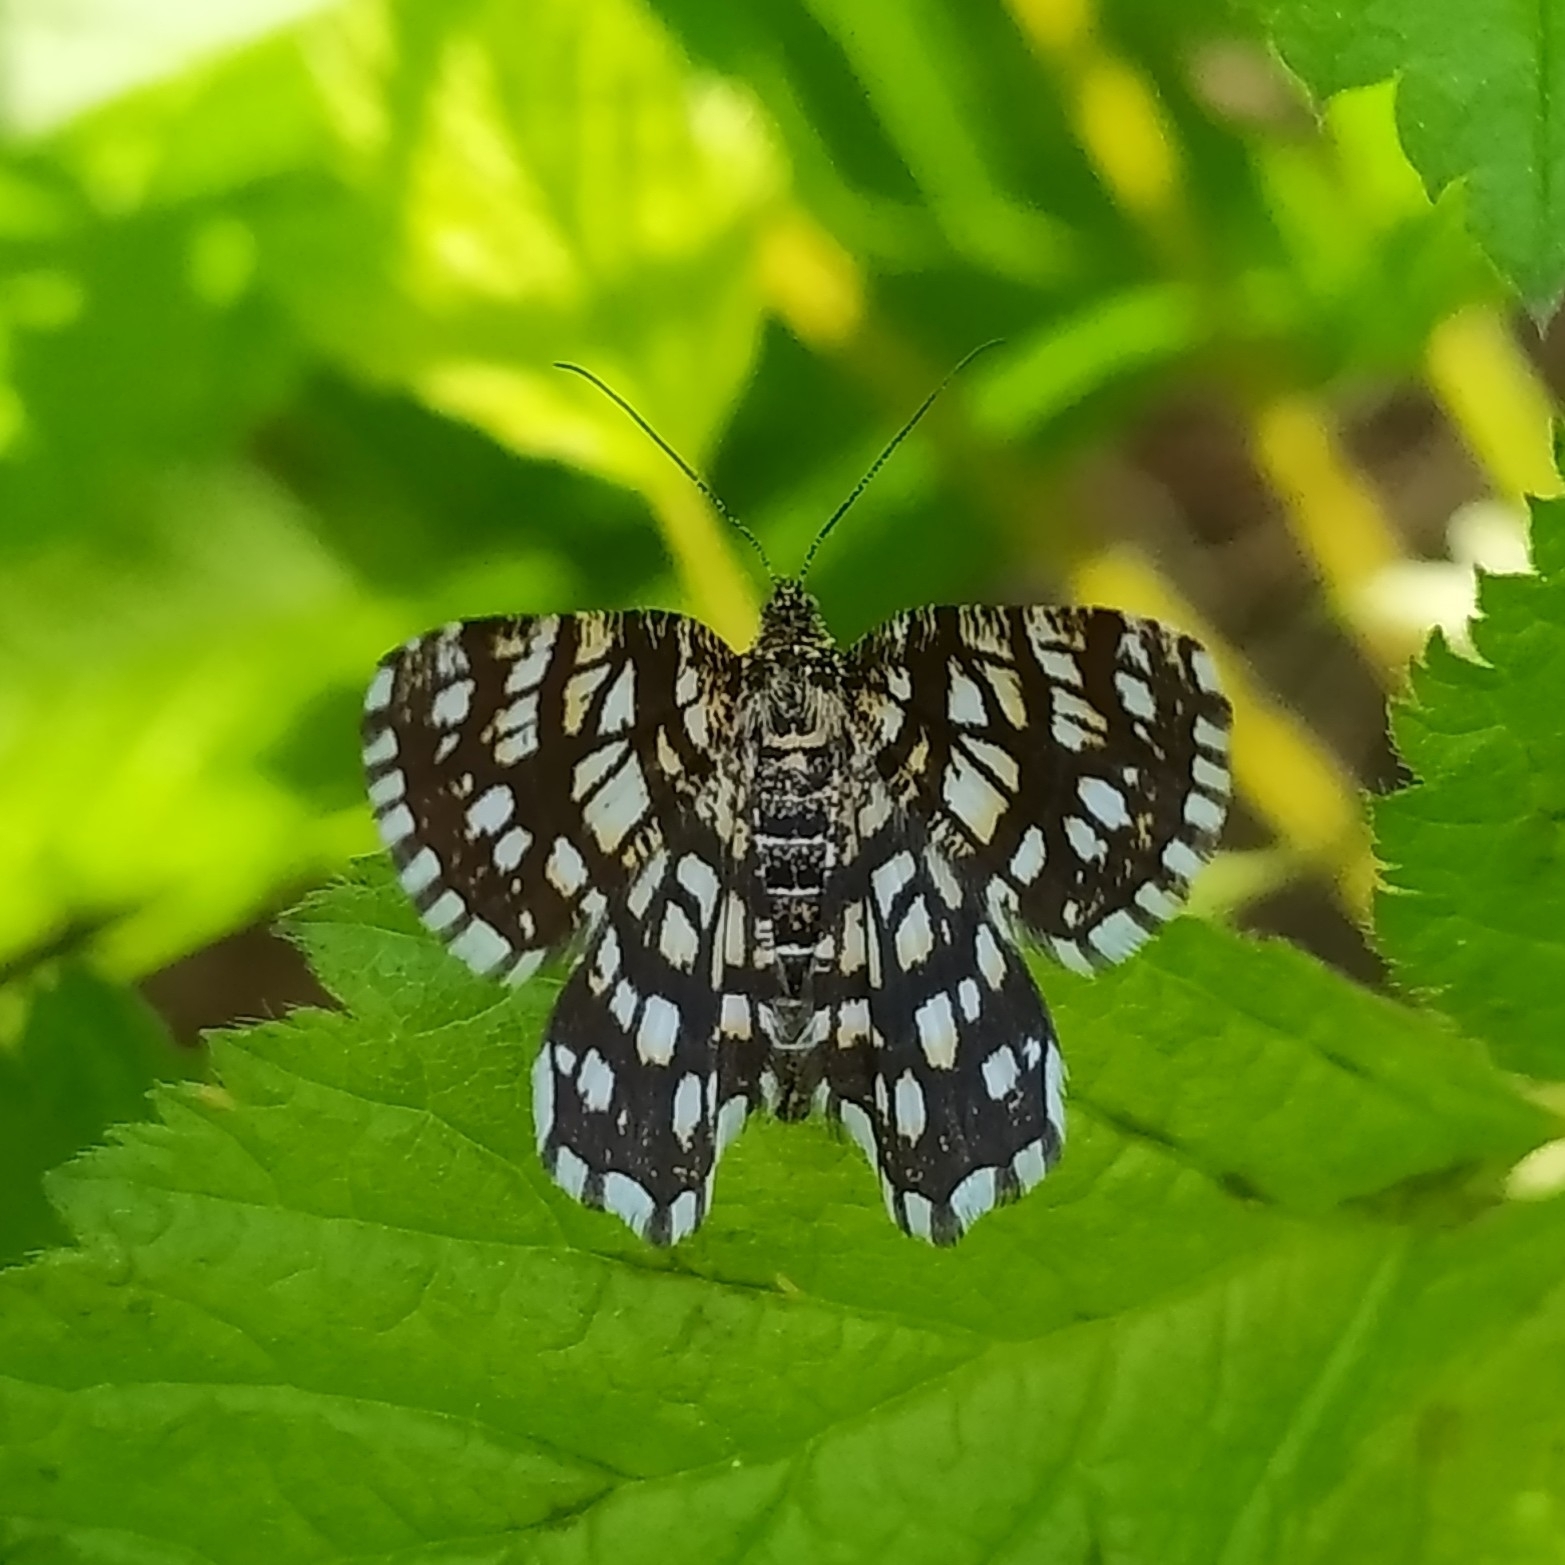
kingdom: Animalia
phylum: Arthropoda
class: Insecta
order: Lepidoptera
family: Geometridae
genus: Chiasmia
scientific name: Chiasmia clathrata
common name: Latticed heath
